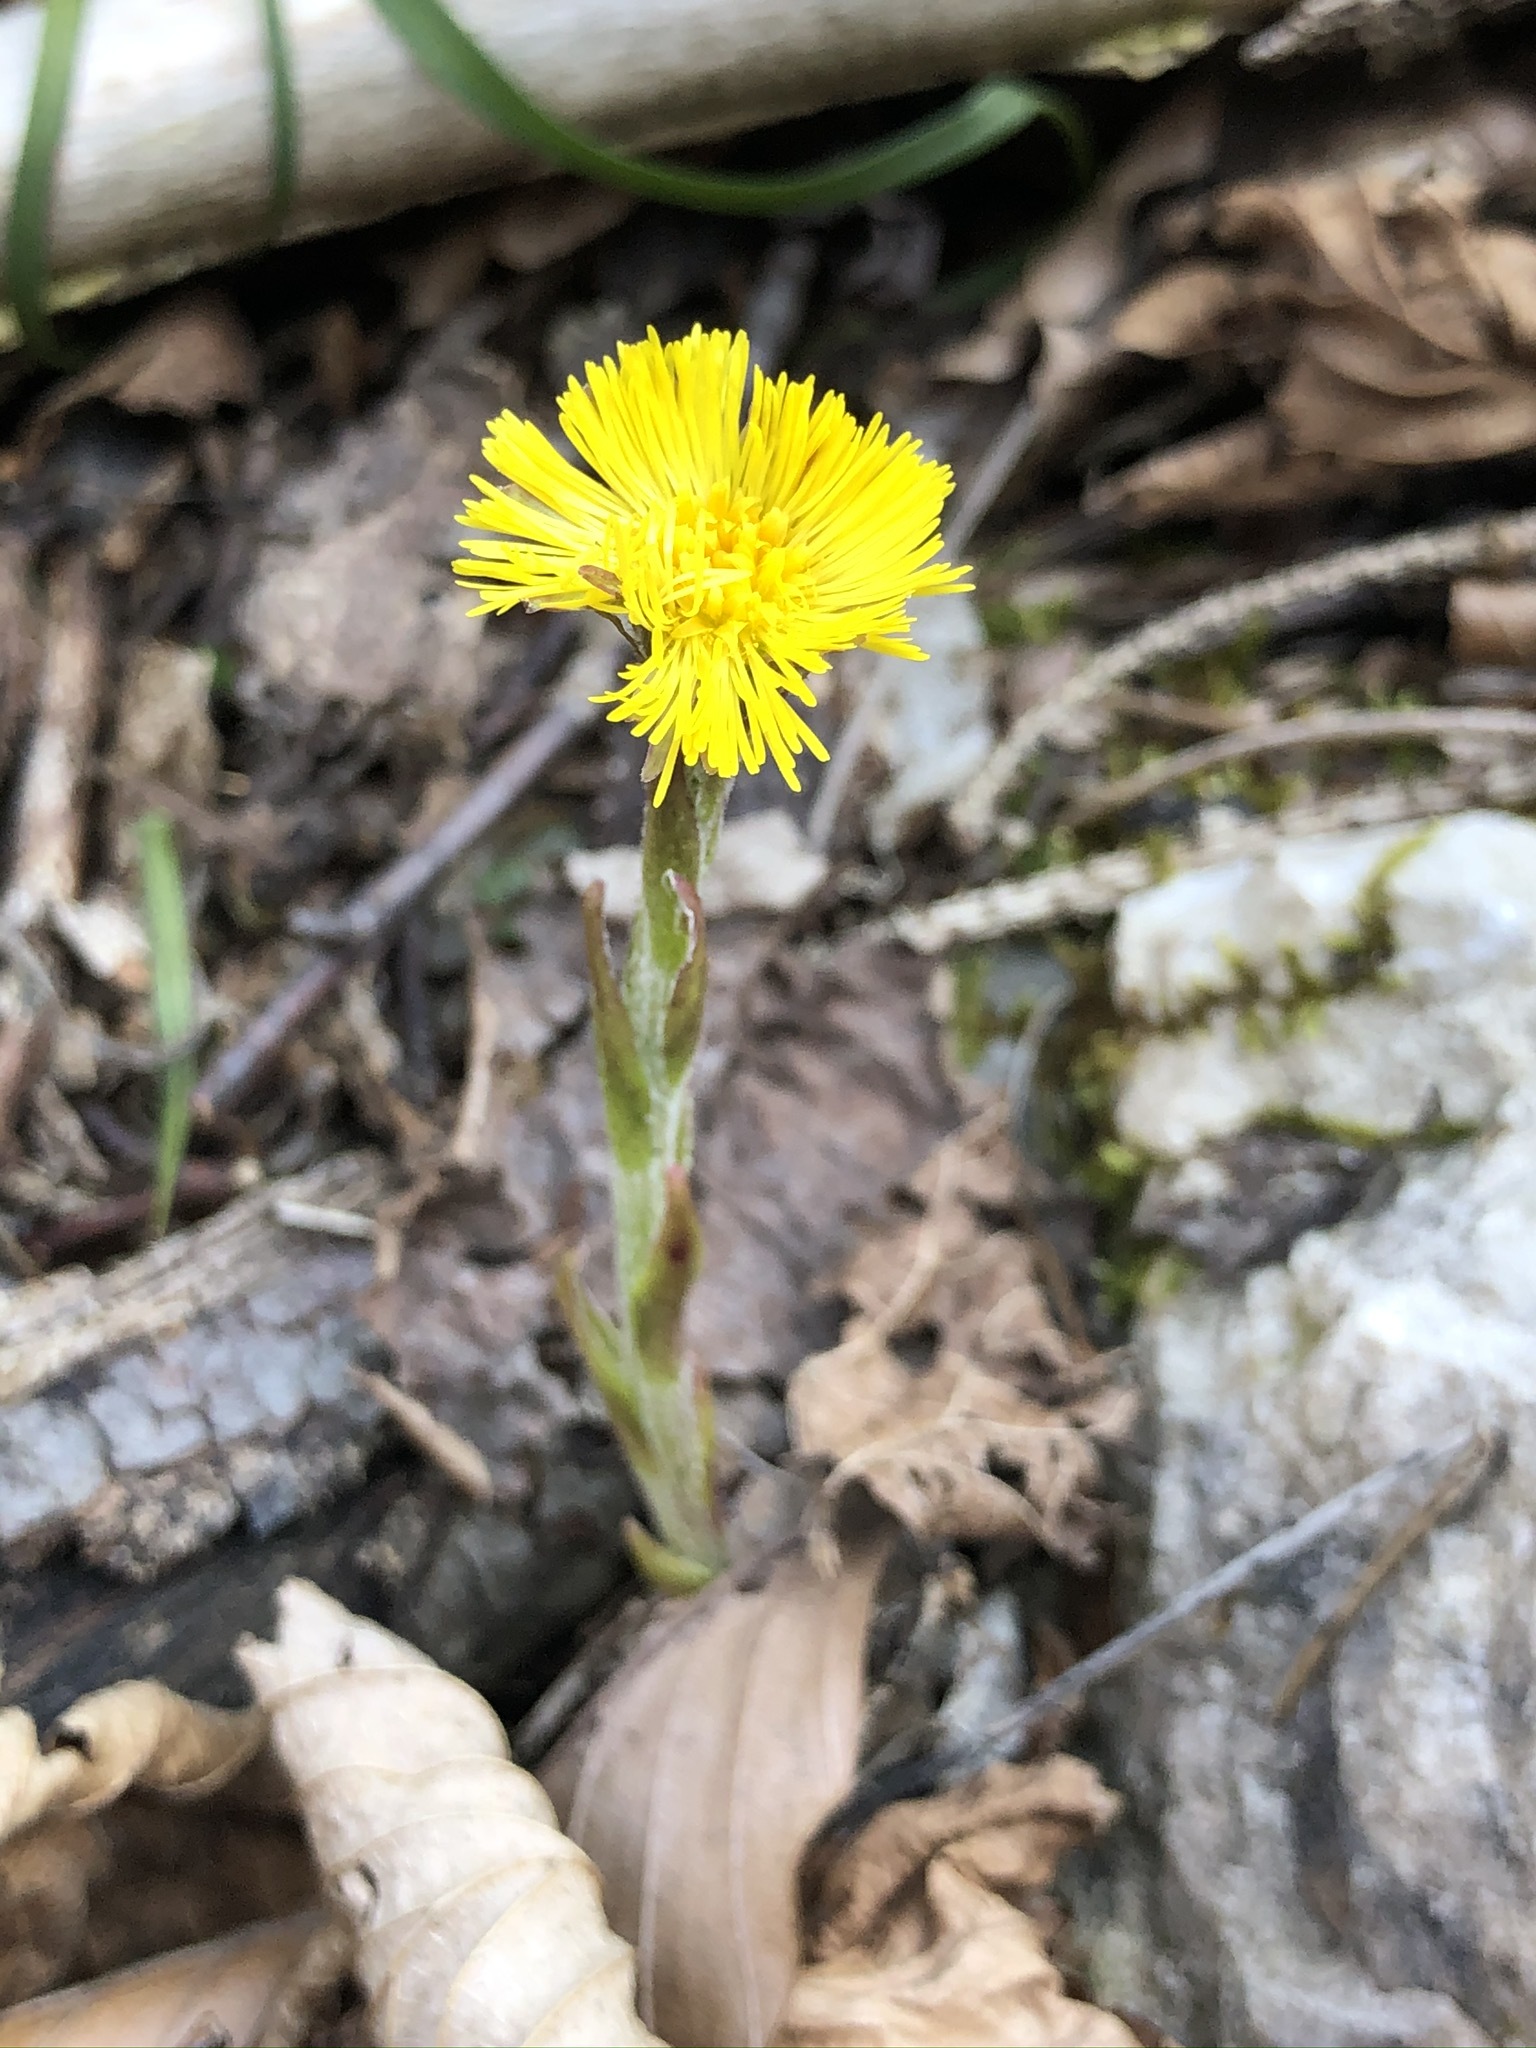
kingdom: Plantae
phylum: Tracheophyta
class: Magnoliopsida
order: Asterales
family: Asteraceae
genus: Tussilago
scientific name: Tussilago farfara
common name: Coltsfoot
